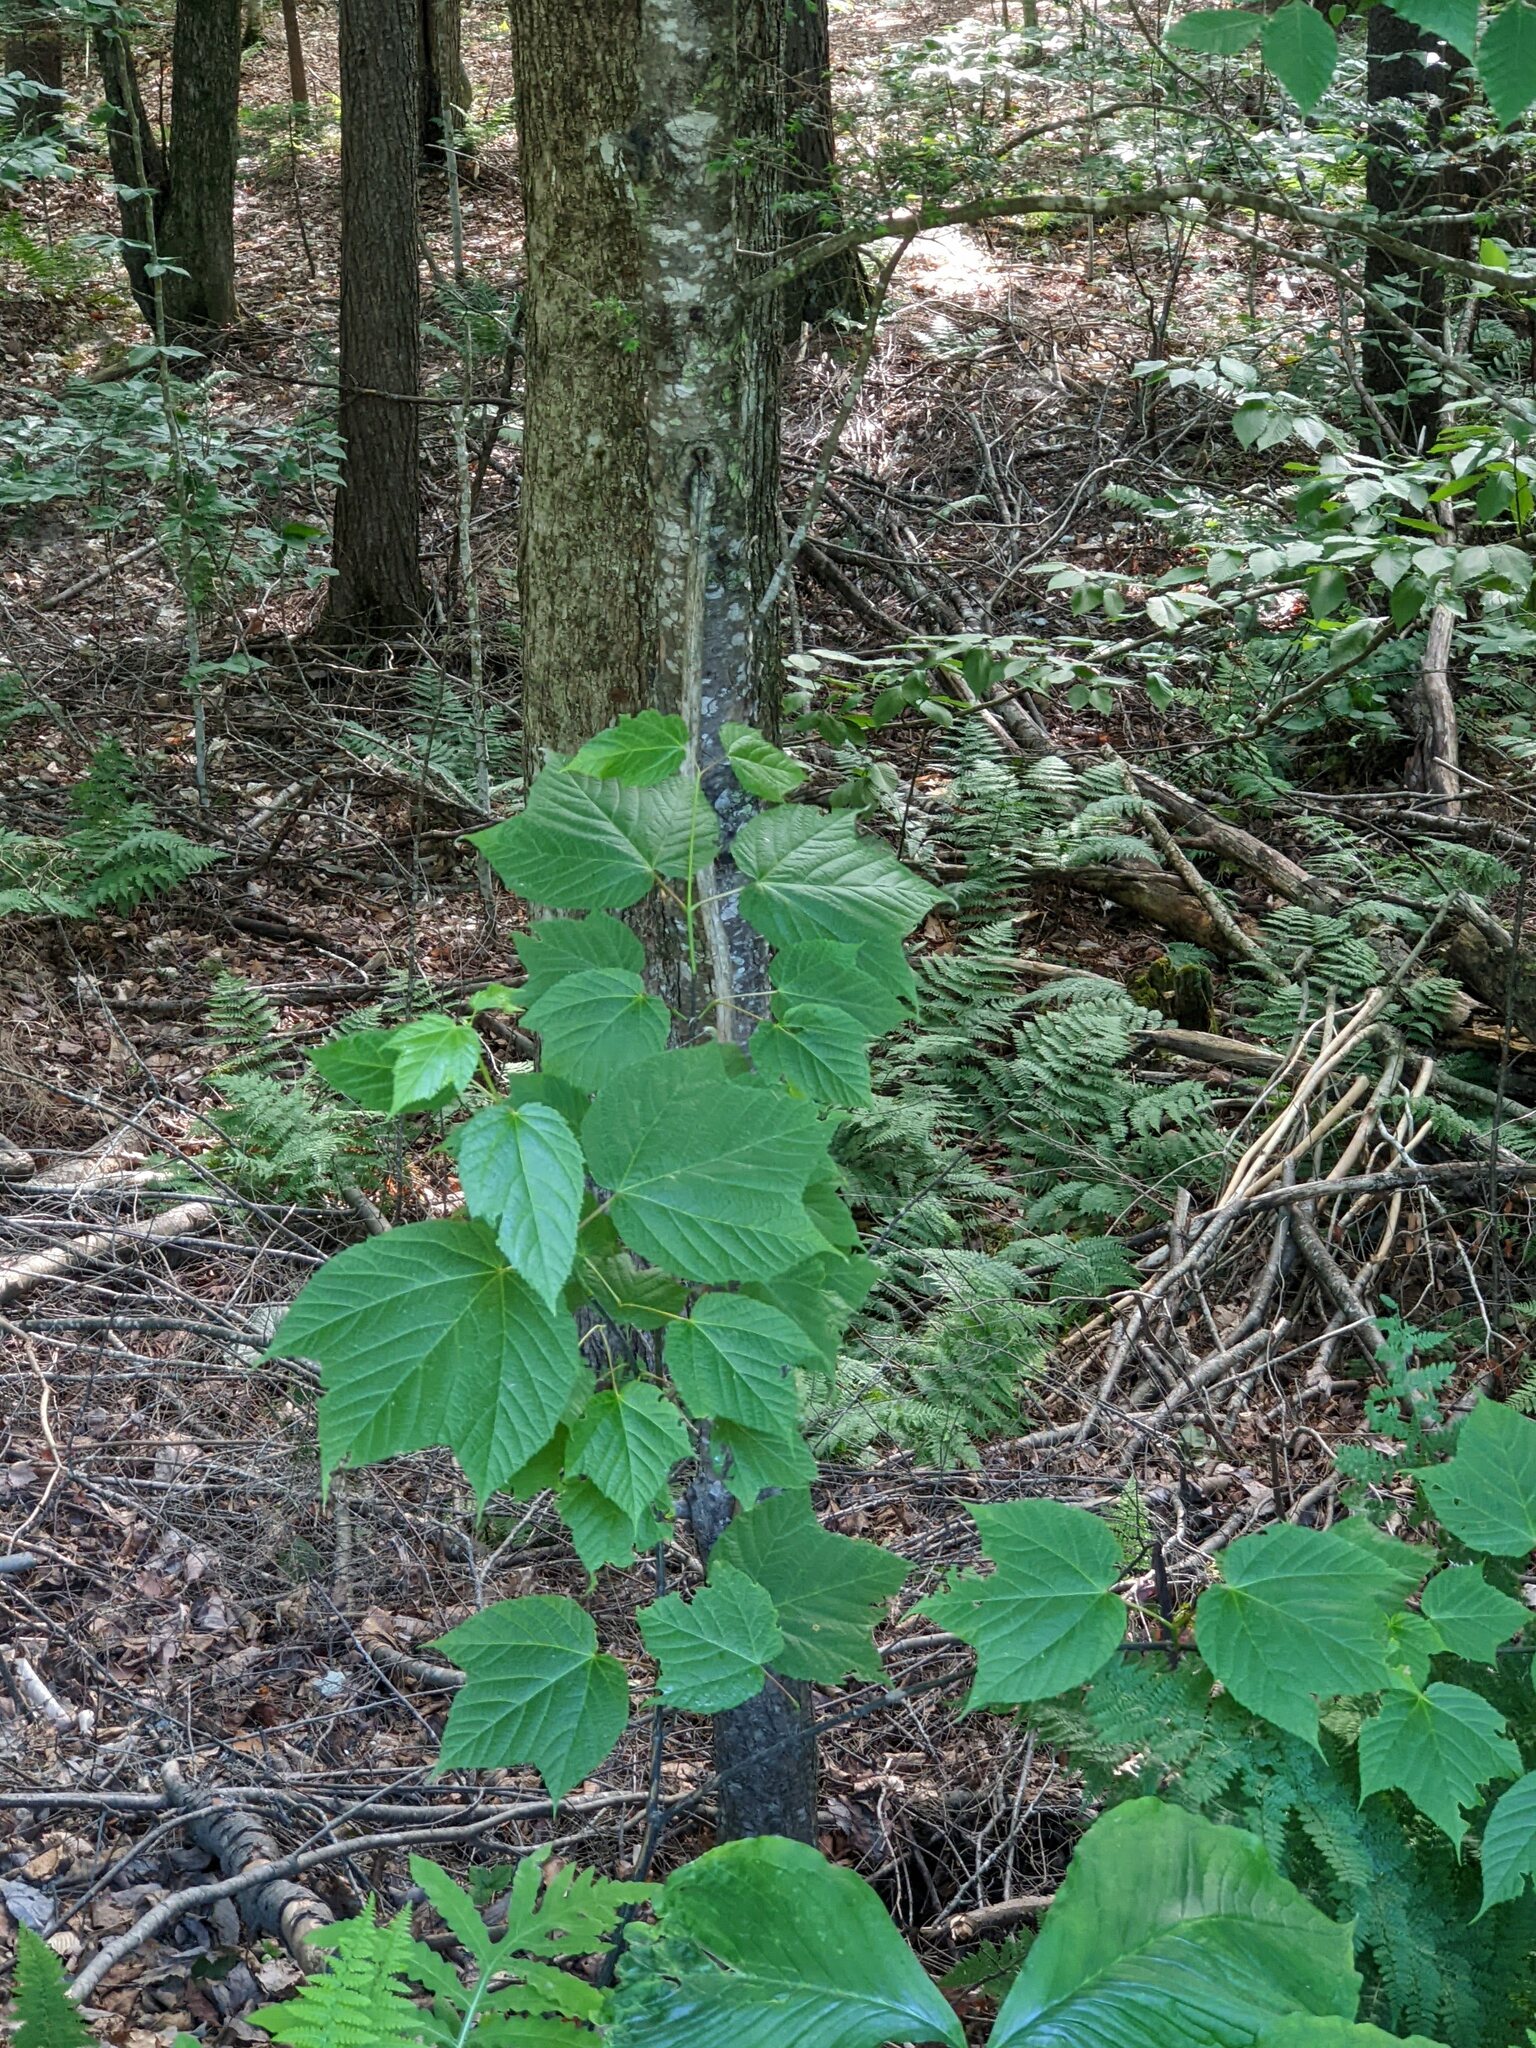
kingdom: Plantae
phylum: Tracheophyta
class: Magnoliopsida
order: Sapindales
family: Sapindaceae
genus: Acer
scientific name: Acer pensylvanicum
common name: Moosewood
